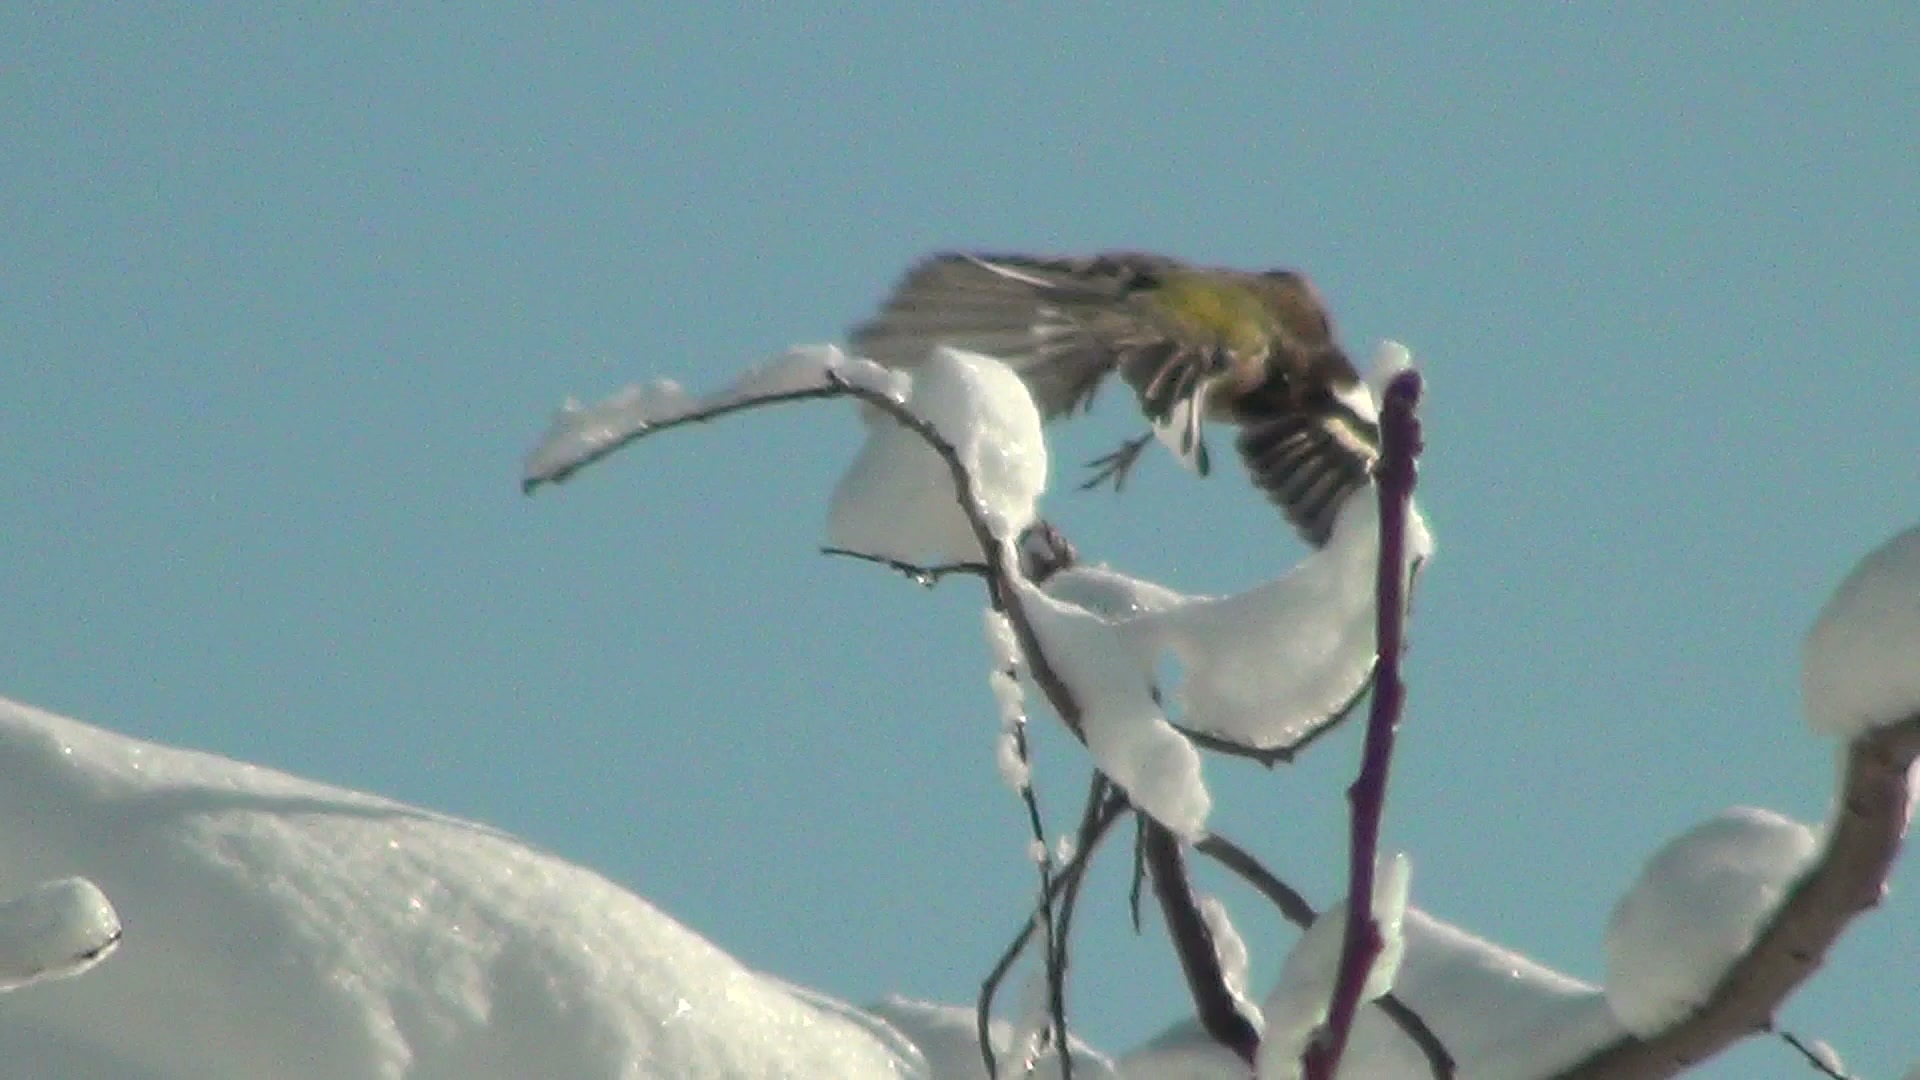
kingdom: Animalia
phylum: Chordata
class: Aves
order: Passeriformes
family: Fringillidae
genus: Fringilla
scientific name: Fringilla coelebs
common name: Common chaffinch
